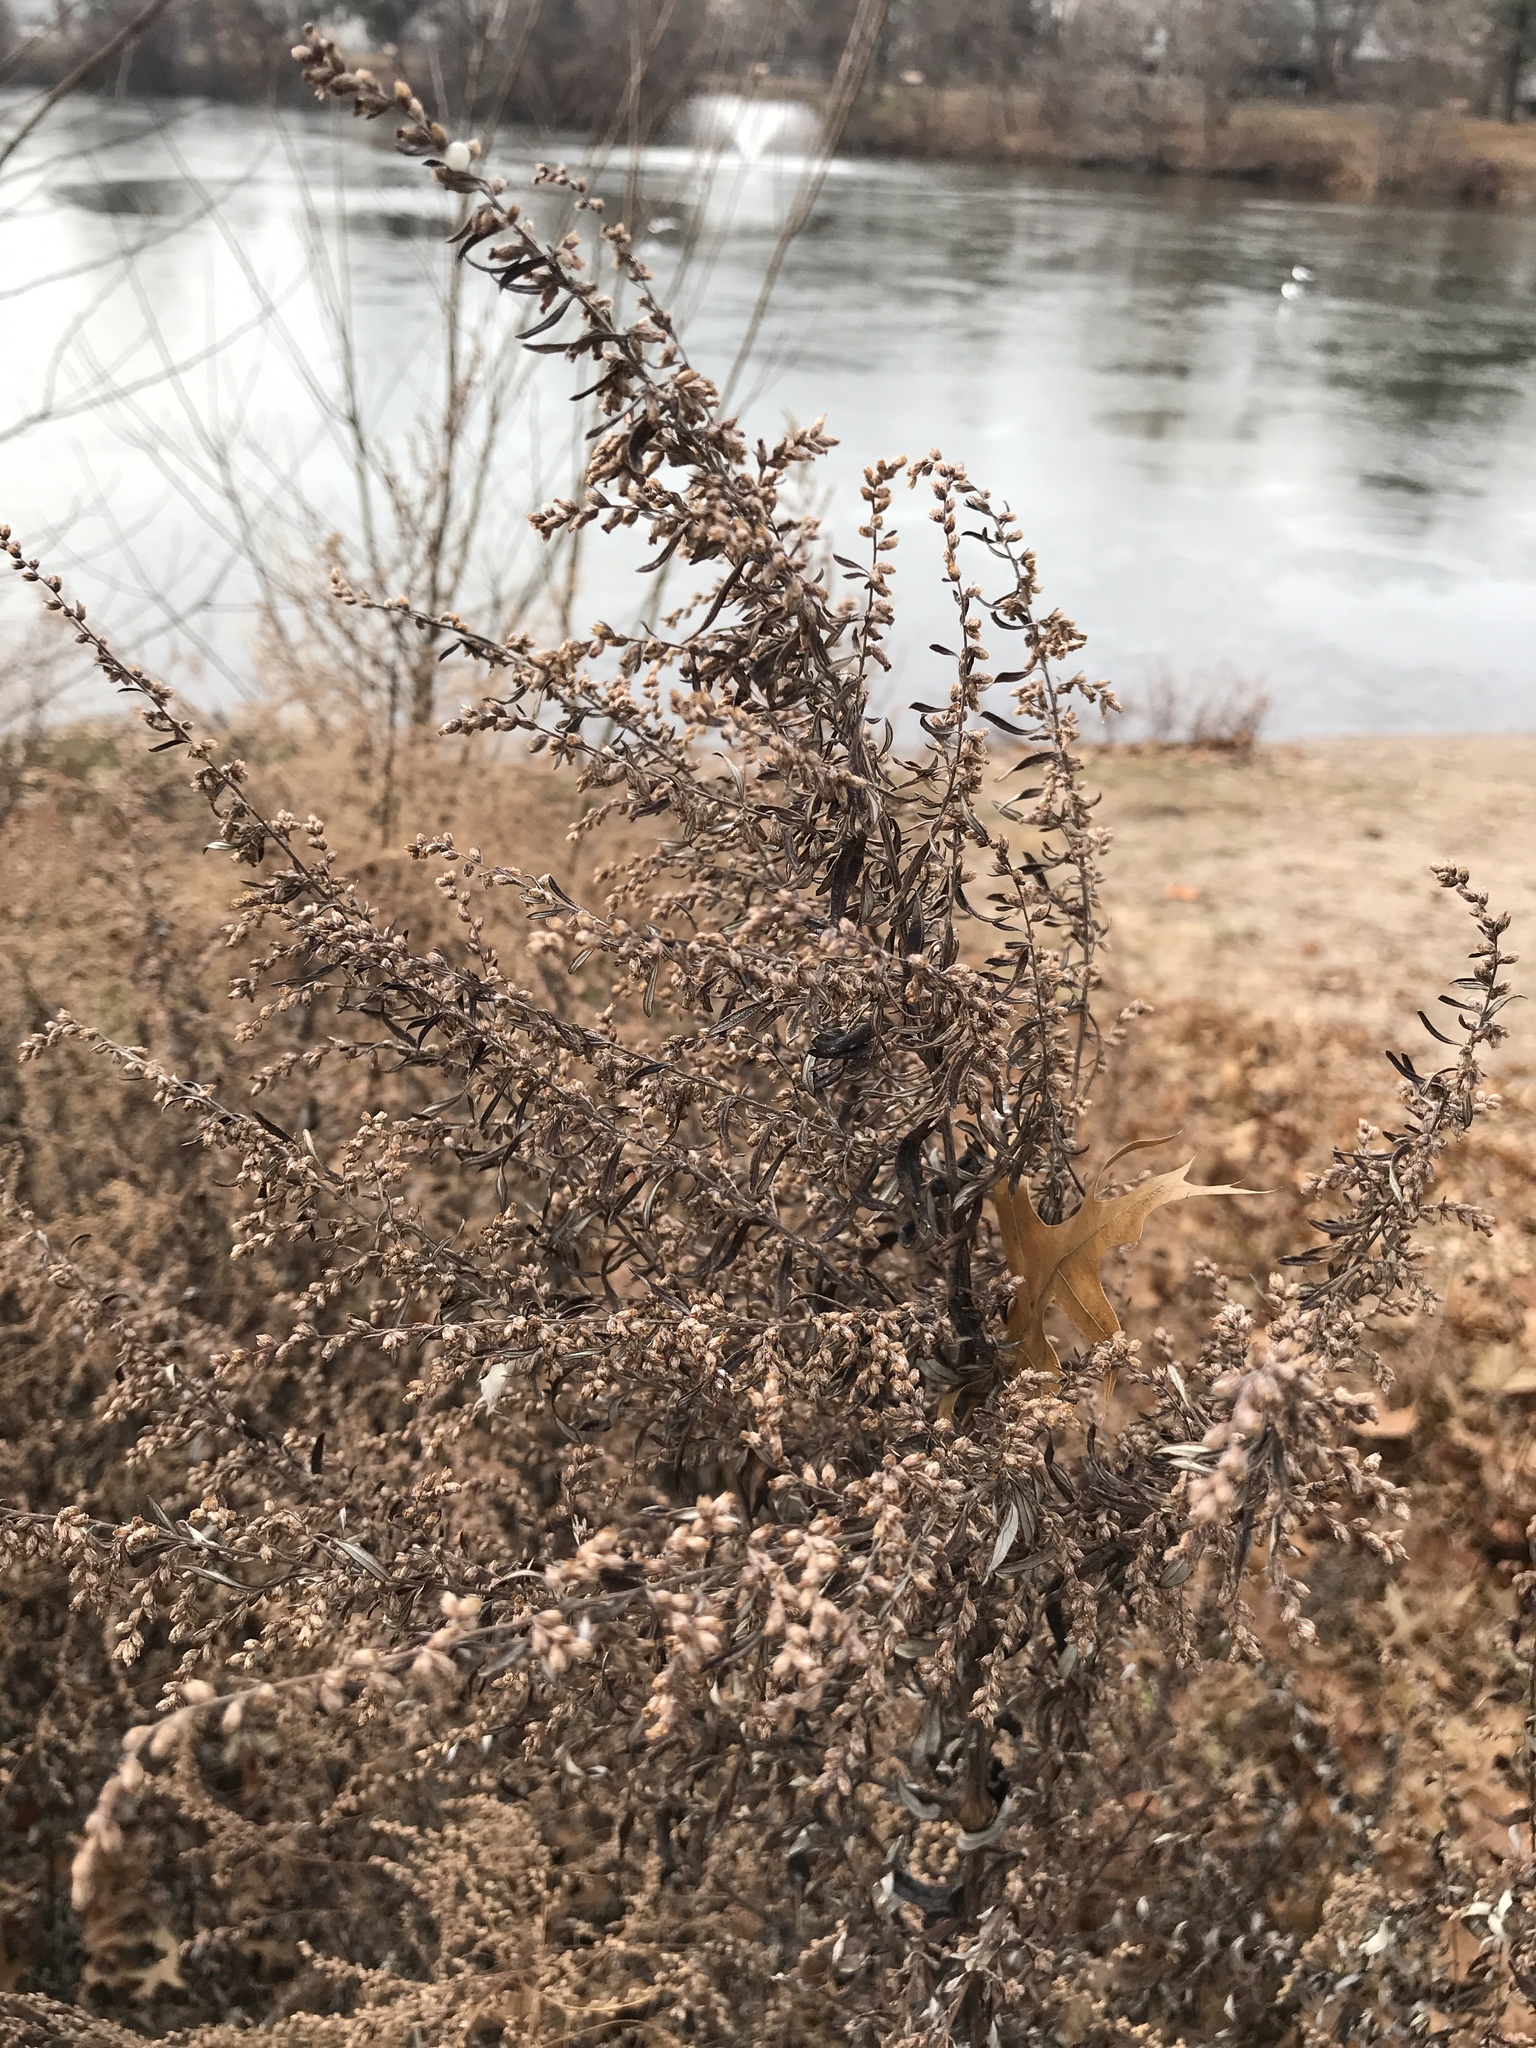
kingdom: Plantae
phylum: Tracheophyta
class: Magnoliopsida
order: Asterales
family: Asteraceae
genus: Artemisia
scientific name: Artemisia vulgaris
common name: Mugwort
